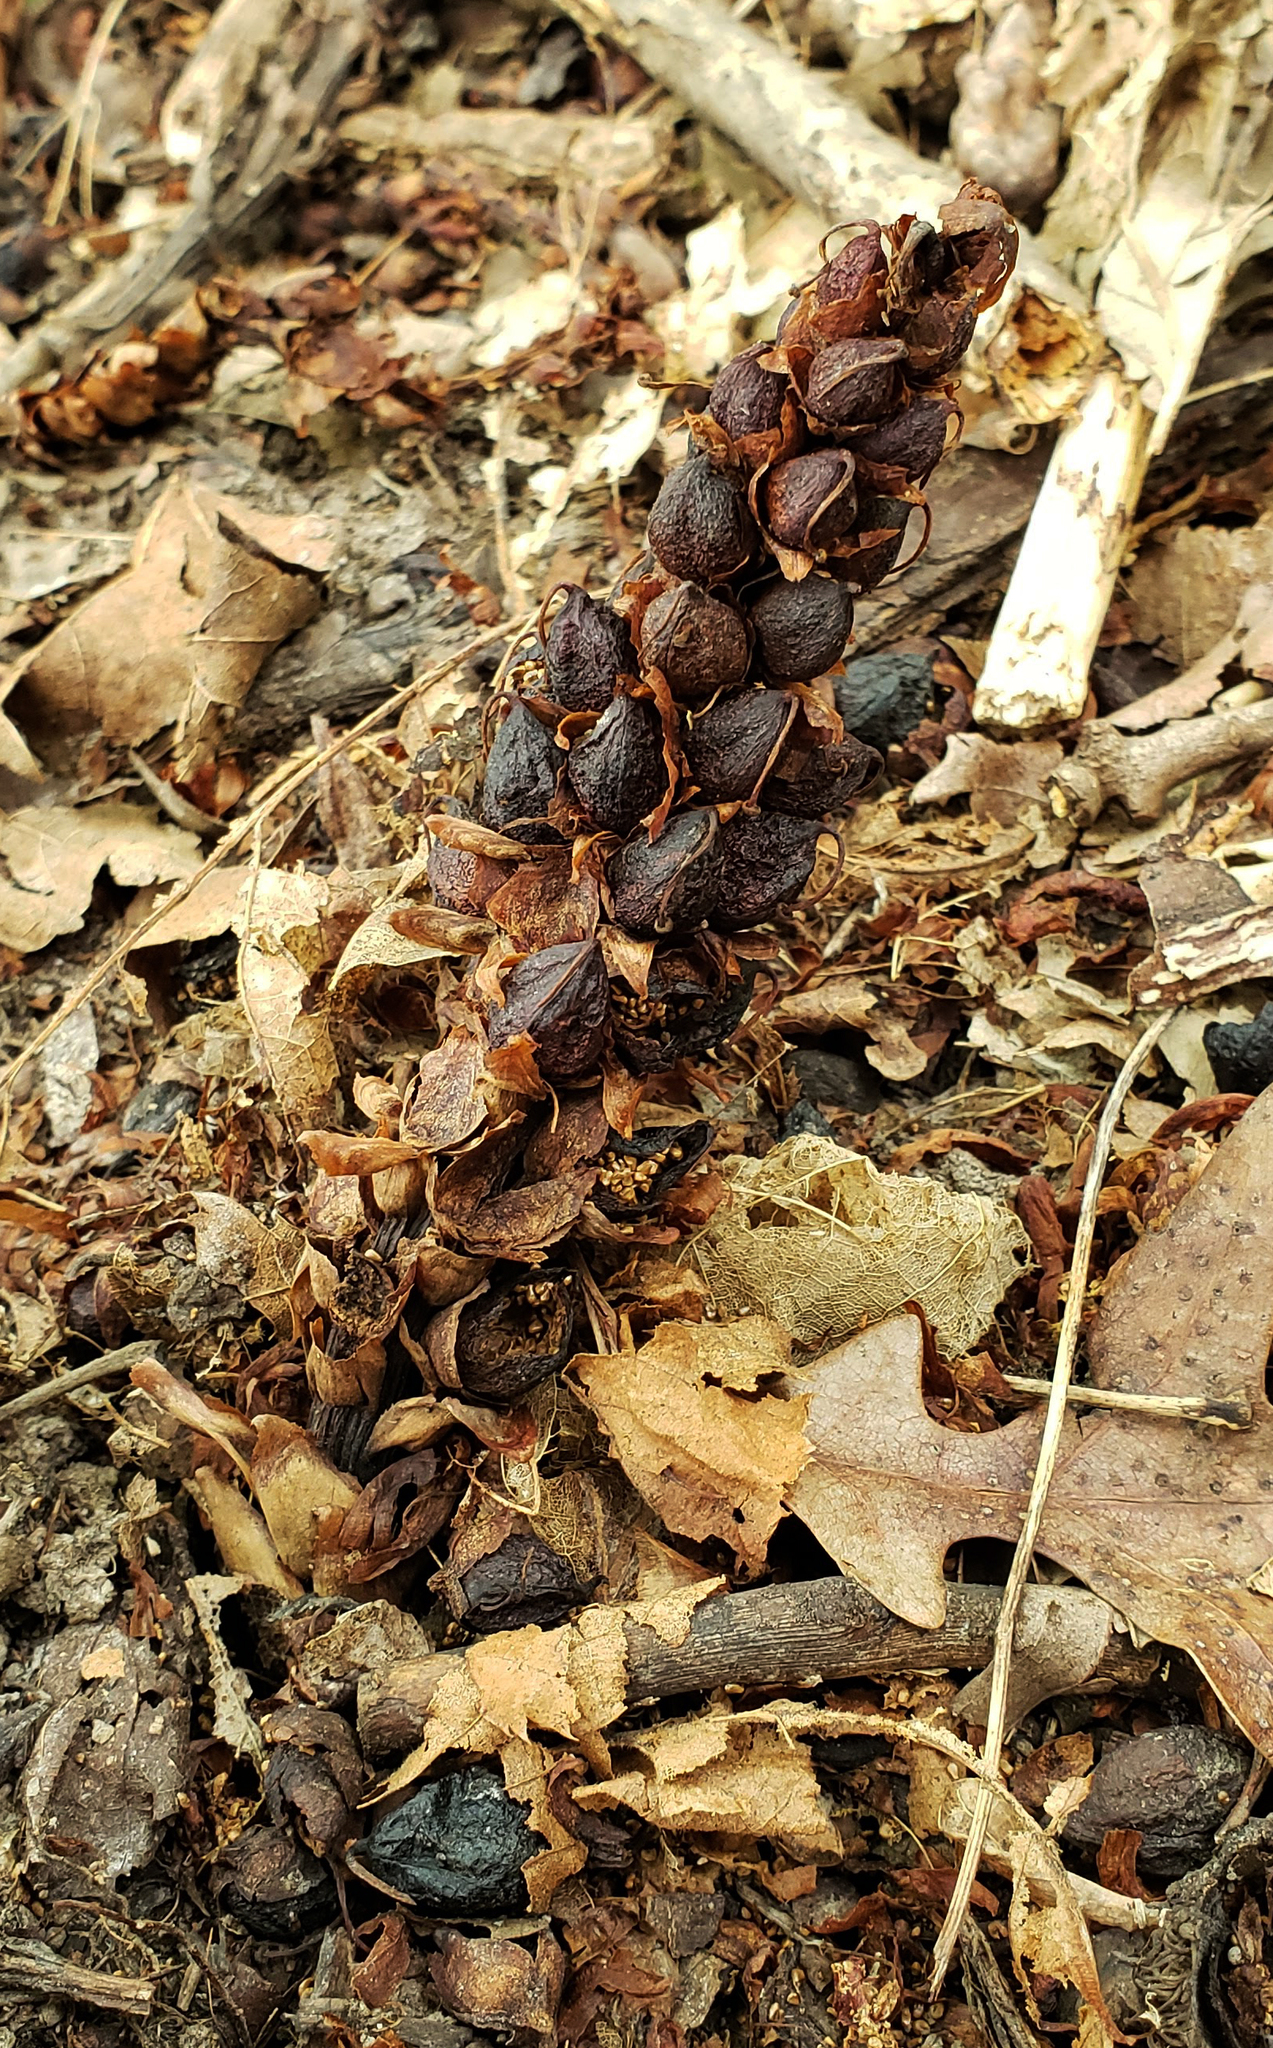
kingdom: Plantae
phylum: Tracheophyta
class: Magnoliopsida
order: Lamiales
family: Orobanchaceae
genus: Conopholis
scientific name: Conopholis americana
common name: American cancer-root
